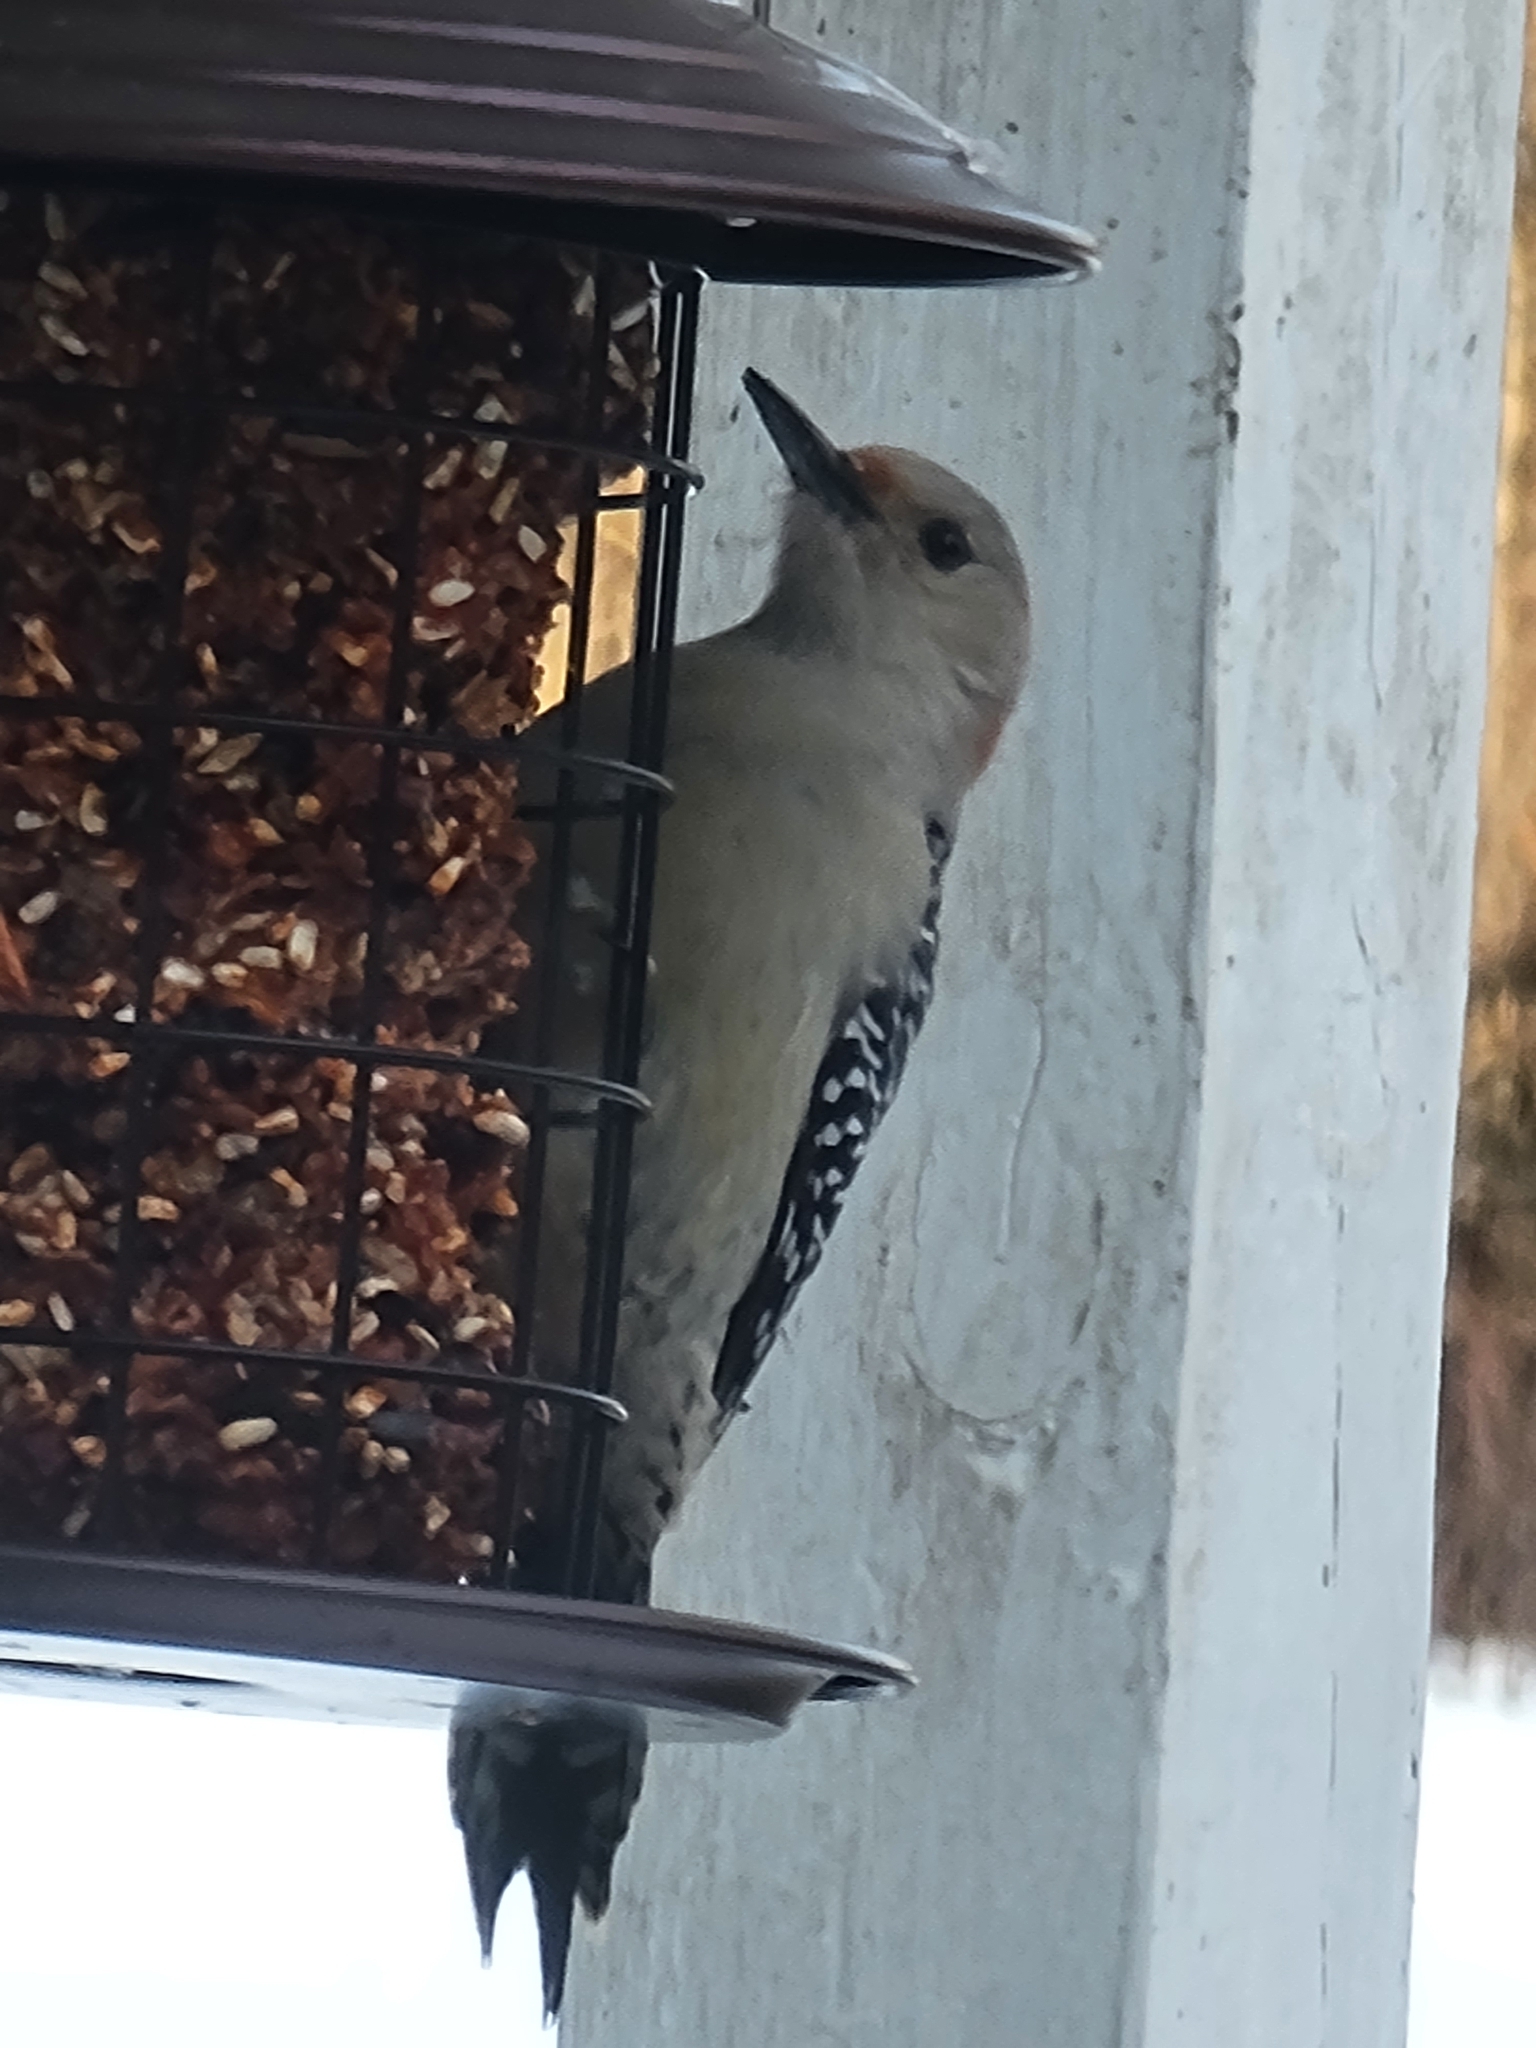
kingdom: Animalia
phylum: Chordata
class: Aves
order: Piciformes
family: Picidae
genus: Melanerpes
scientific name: Melanerpes carolinus
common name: Red-bellied woodpecker
